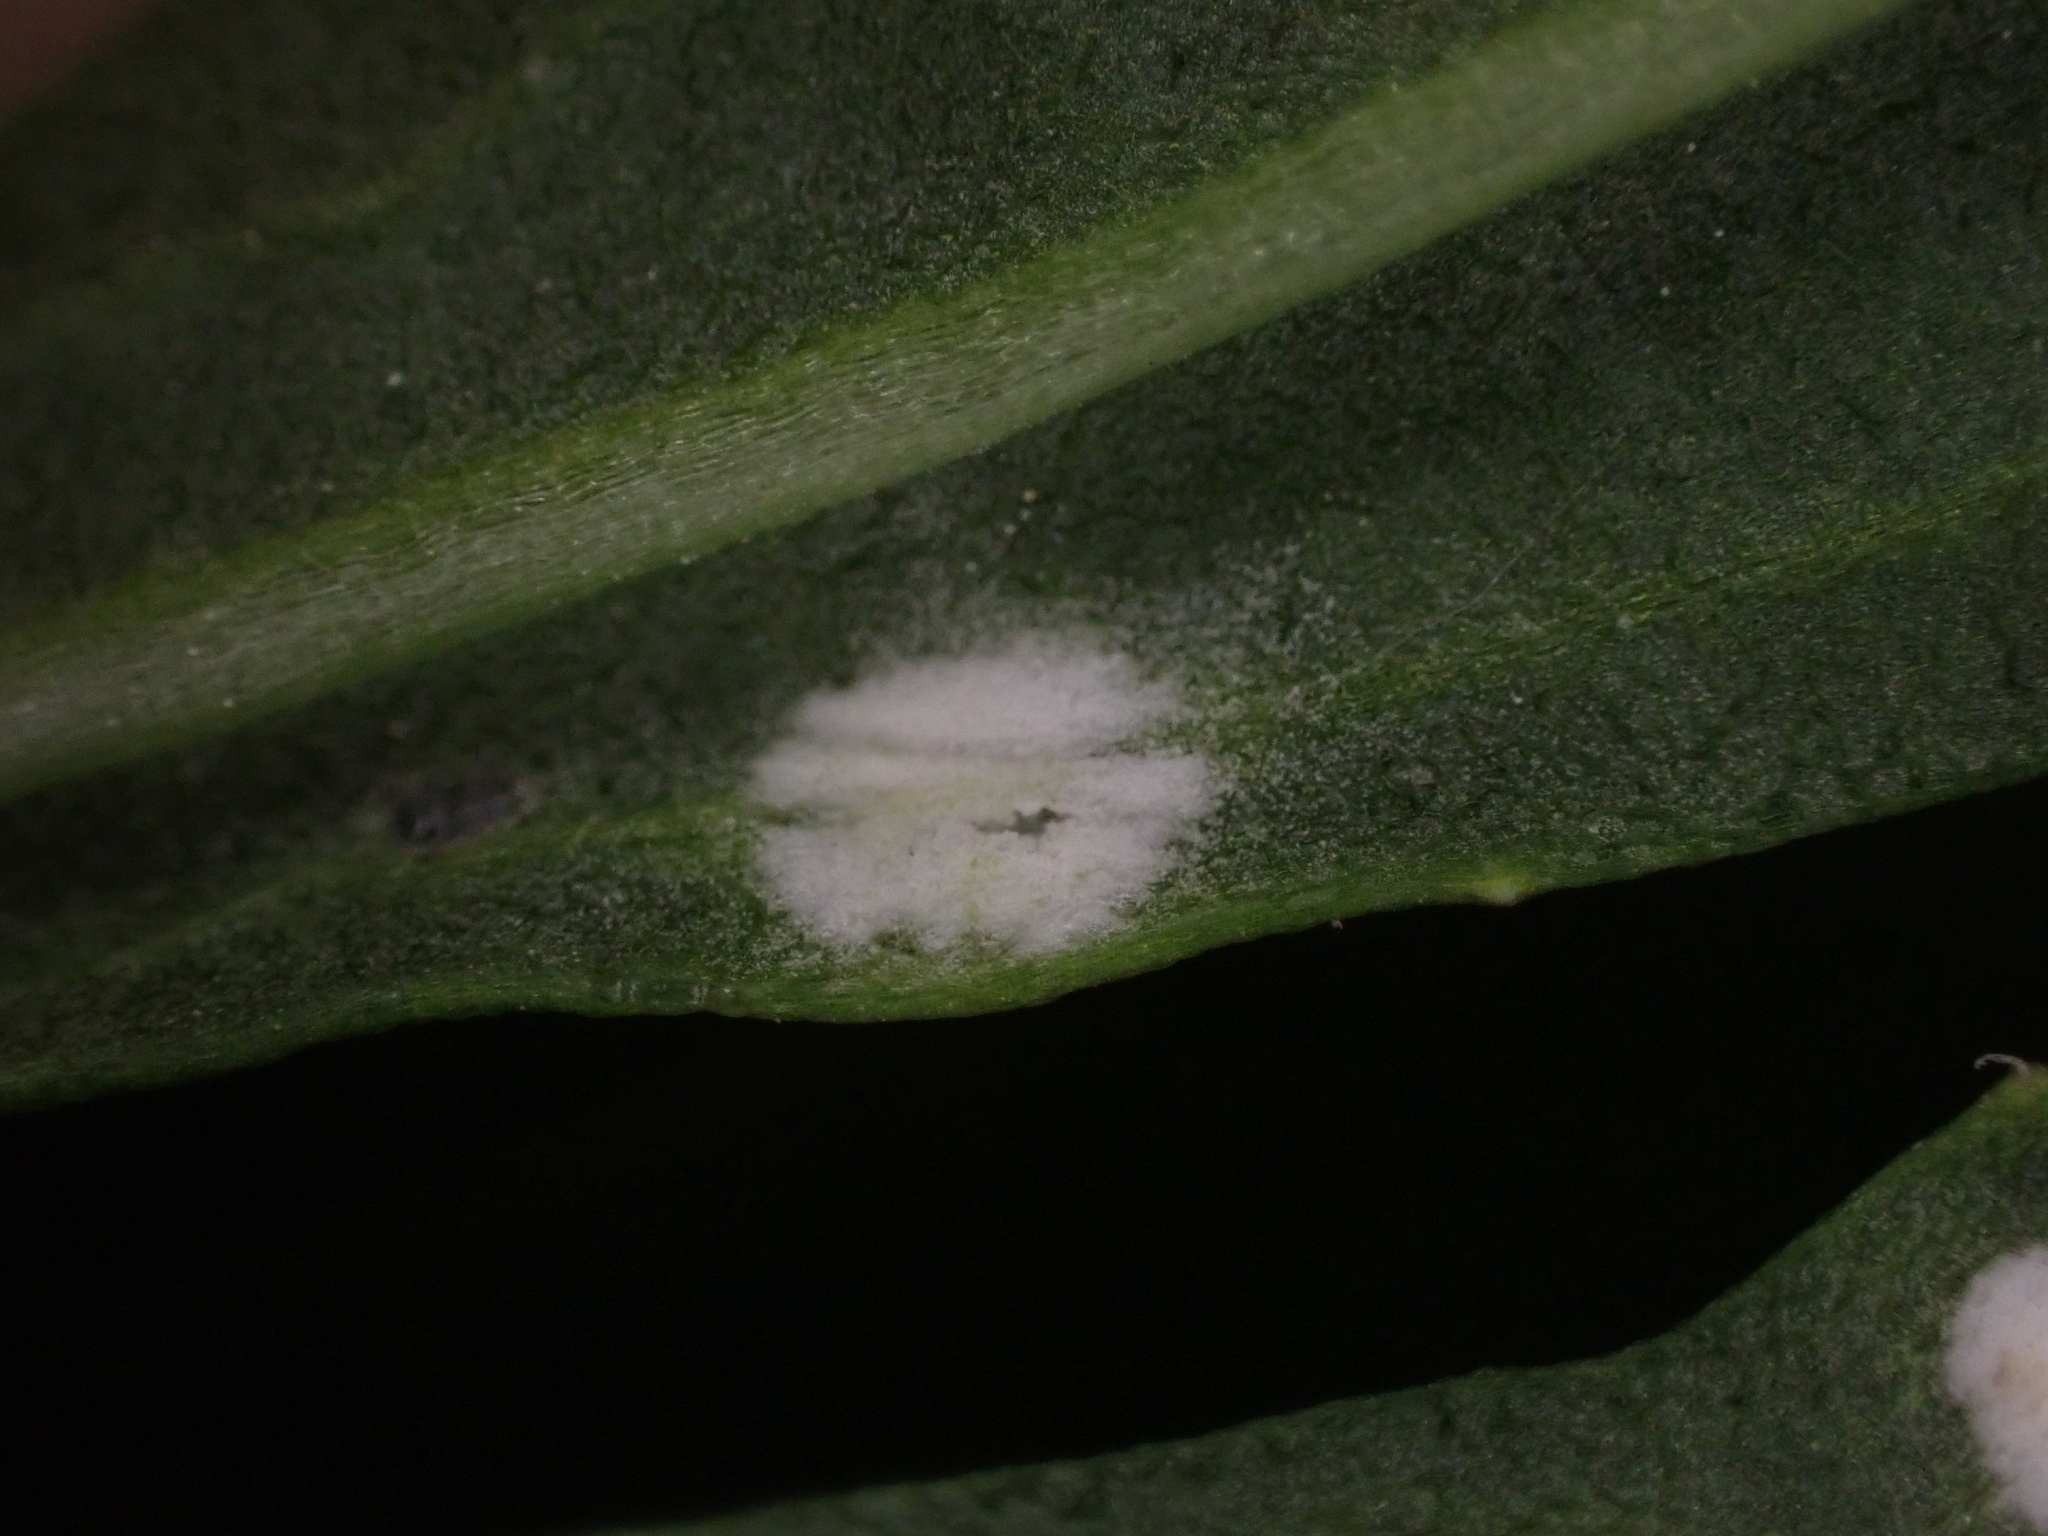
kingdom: Chromista
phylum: Oomycota
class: Peronosporea
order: Albuginales
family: Albuginaceae
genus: Albugo
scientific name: Albugo candida
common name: Crucifer white blister
